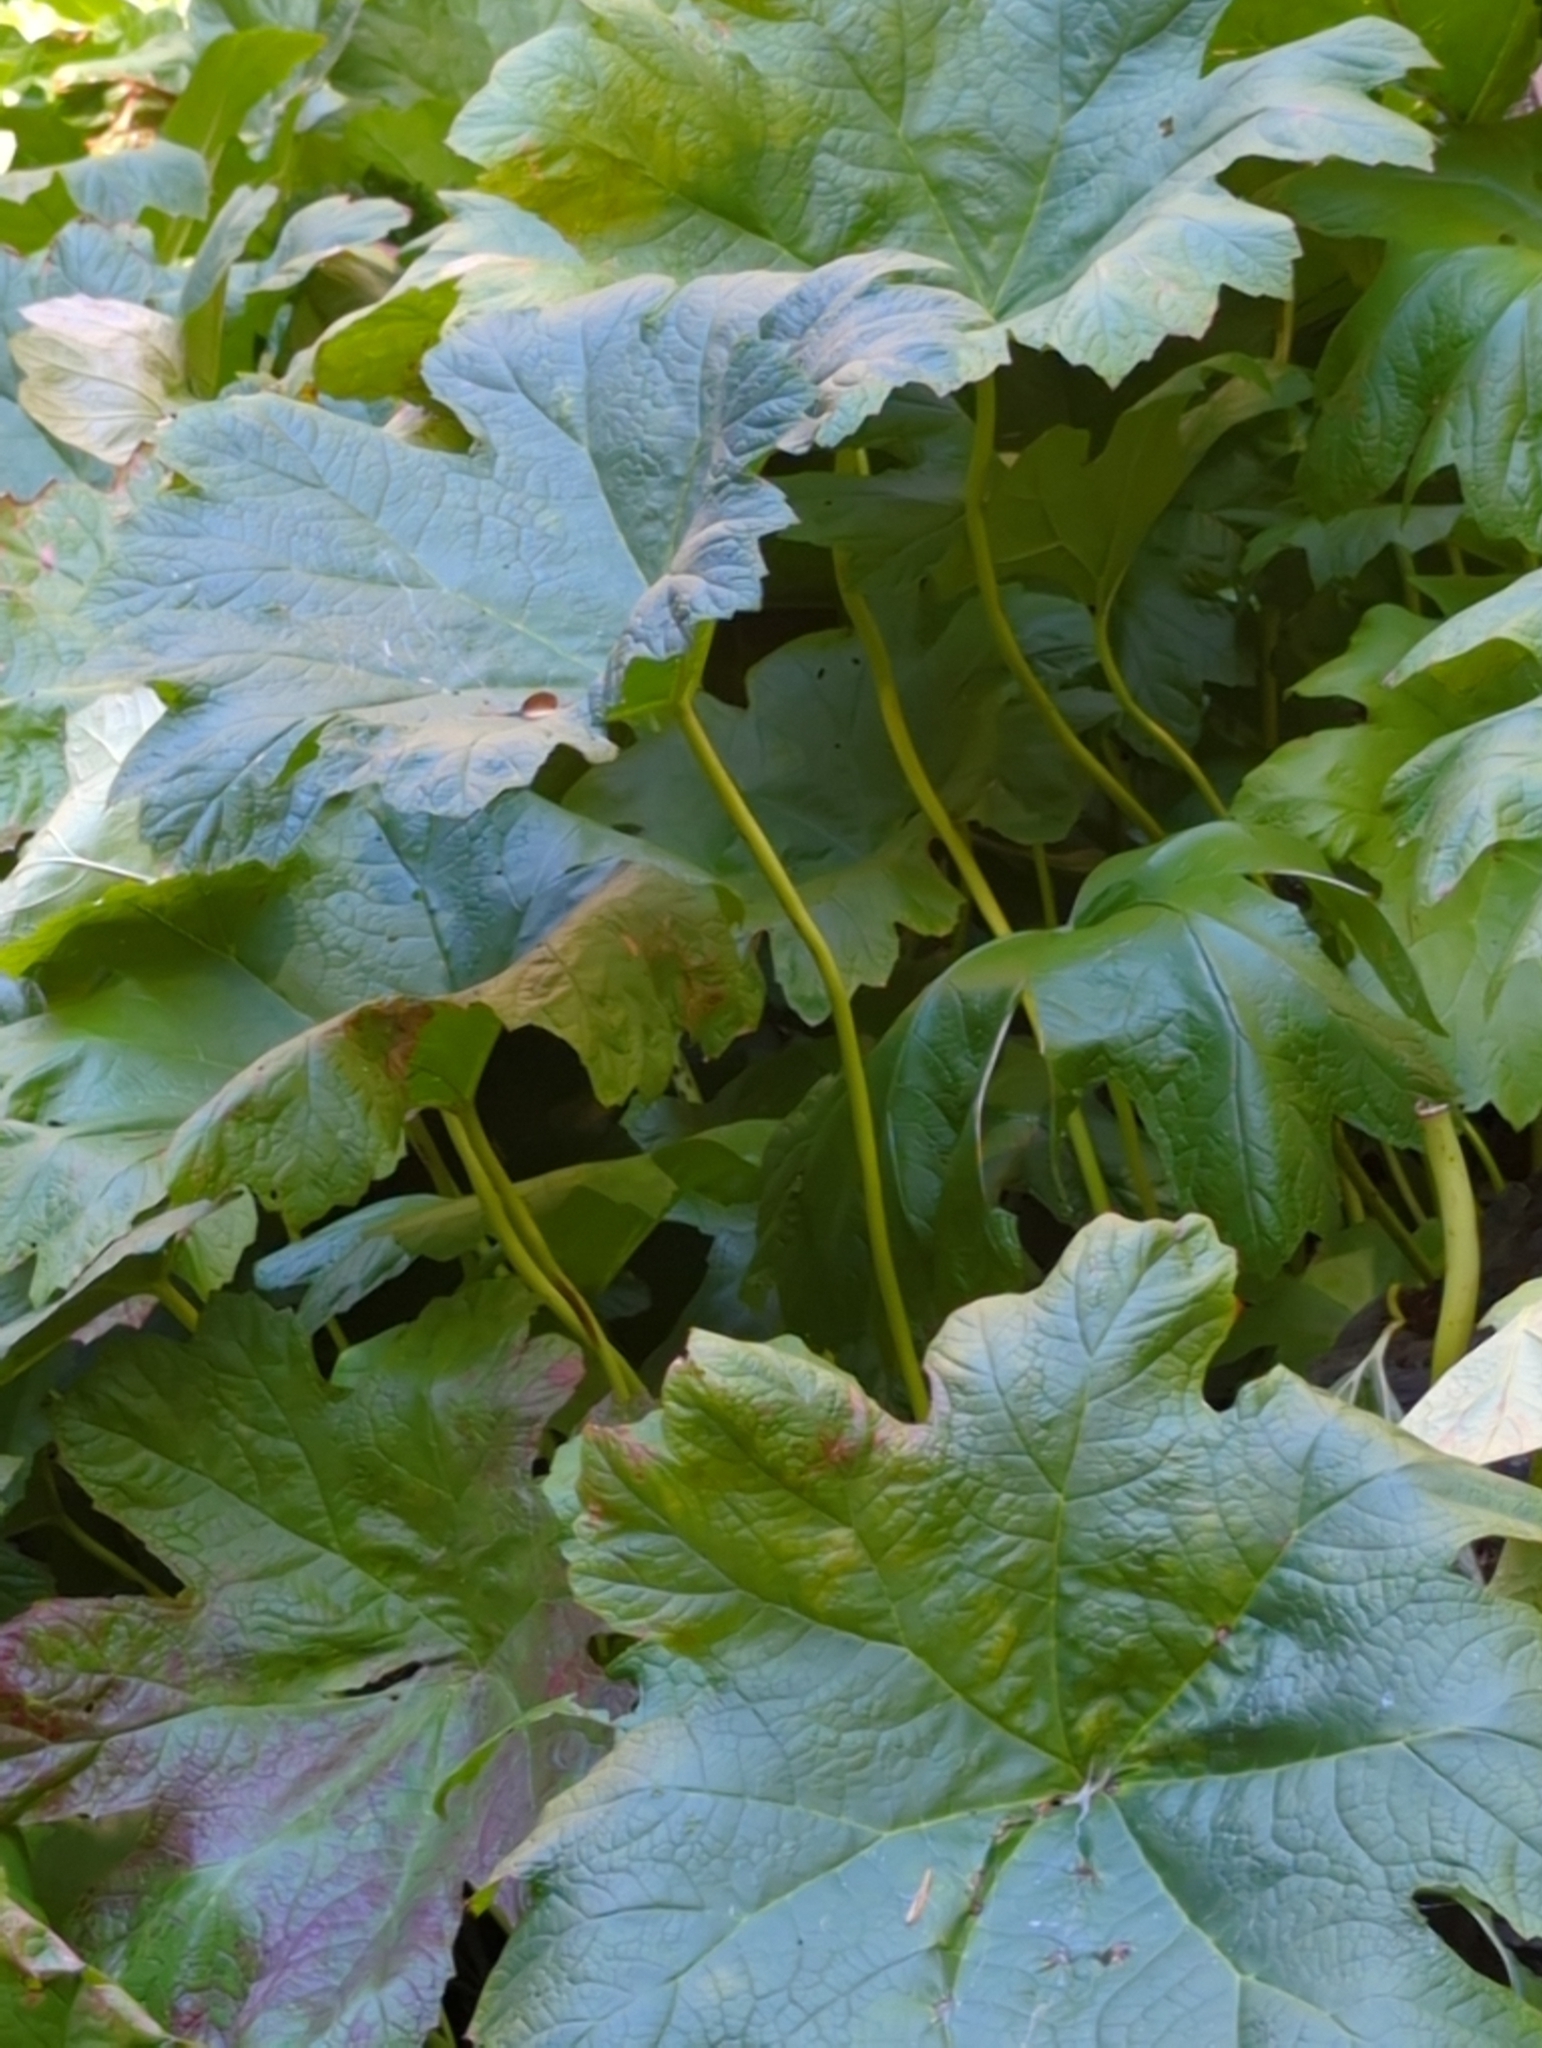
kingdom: Plantae
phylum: Tracheophyta
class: Magnoliopsida
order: Saxifragales
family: Saxifragaceae
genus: Darmera
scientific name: Darmera peltata
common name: Indian-rhubarb
